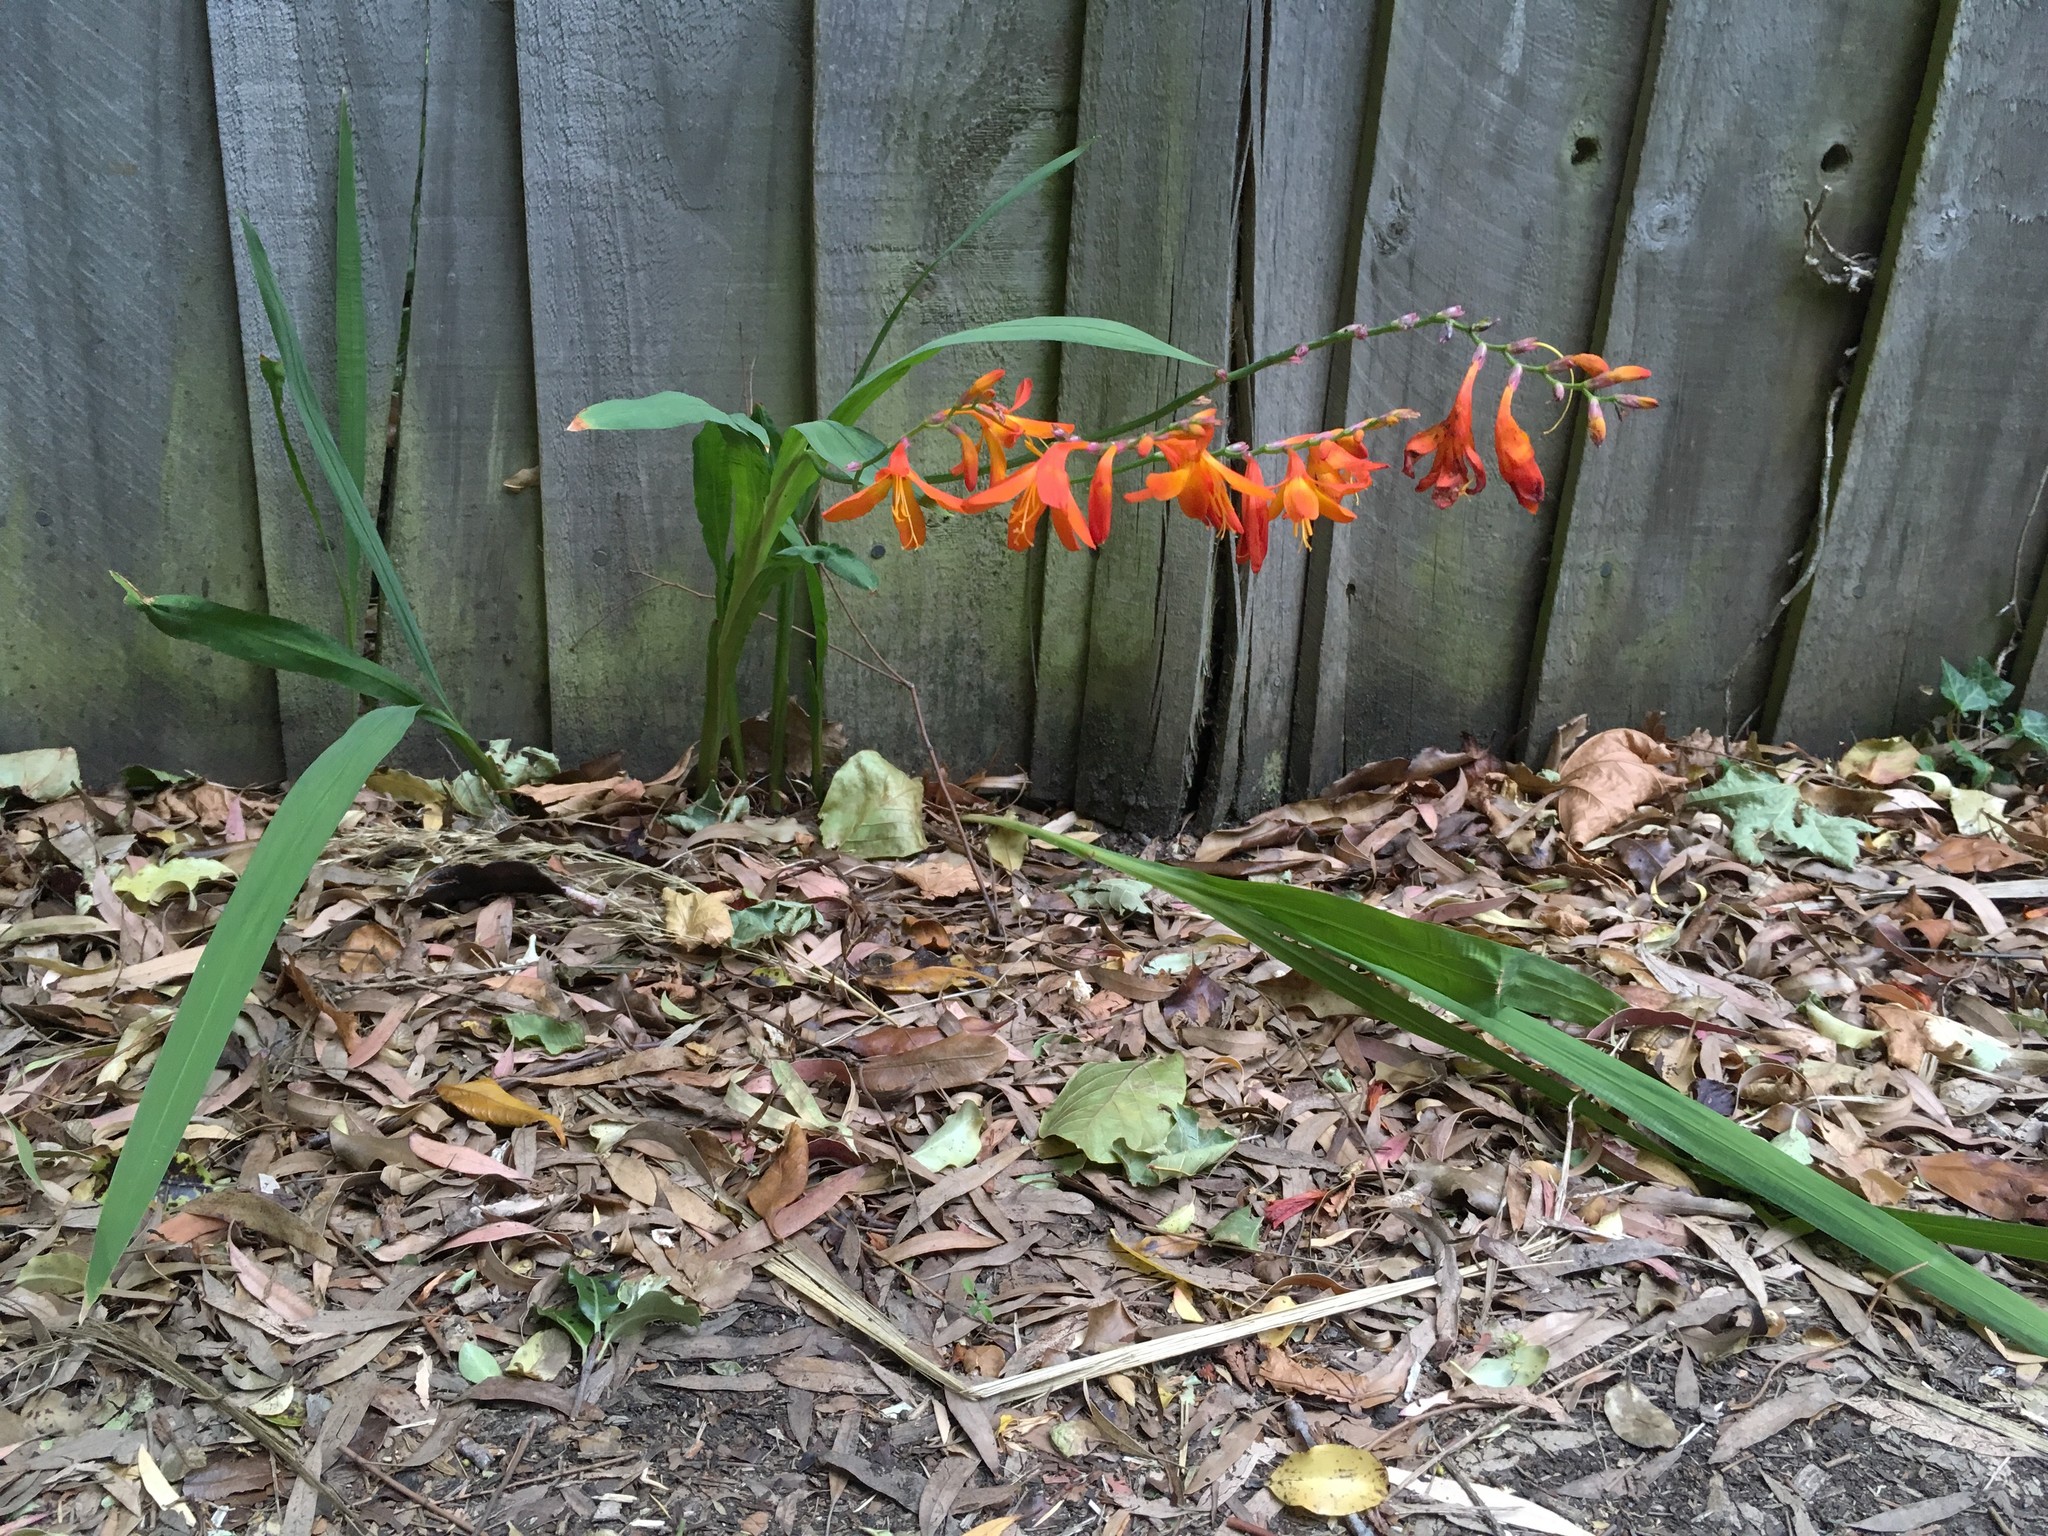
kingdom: Plantae
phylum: Tracheophyta
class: Liliopsida
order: Asparagales
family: Iridaceae
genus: Crocosmia
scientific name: Crocosmia crocosmiiflora
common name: Montbretia
